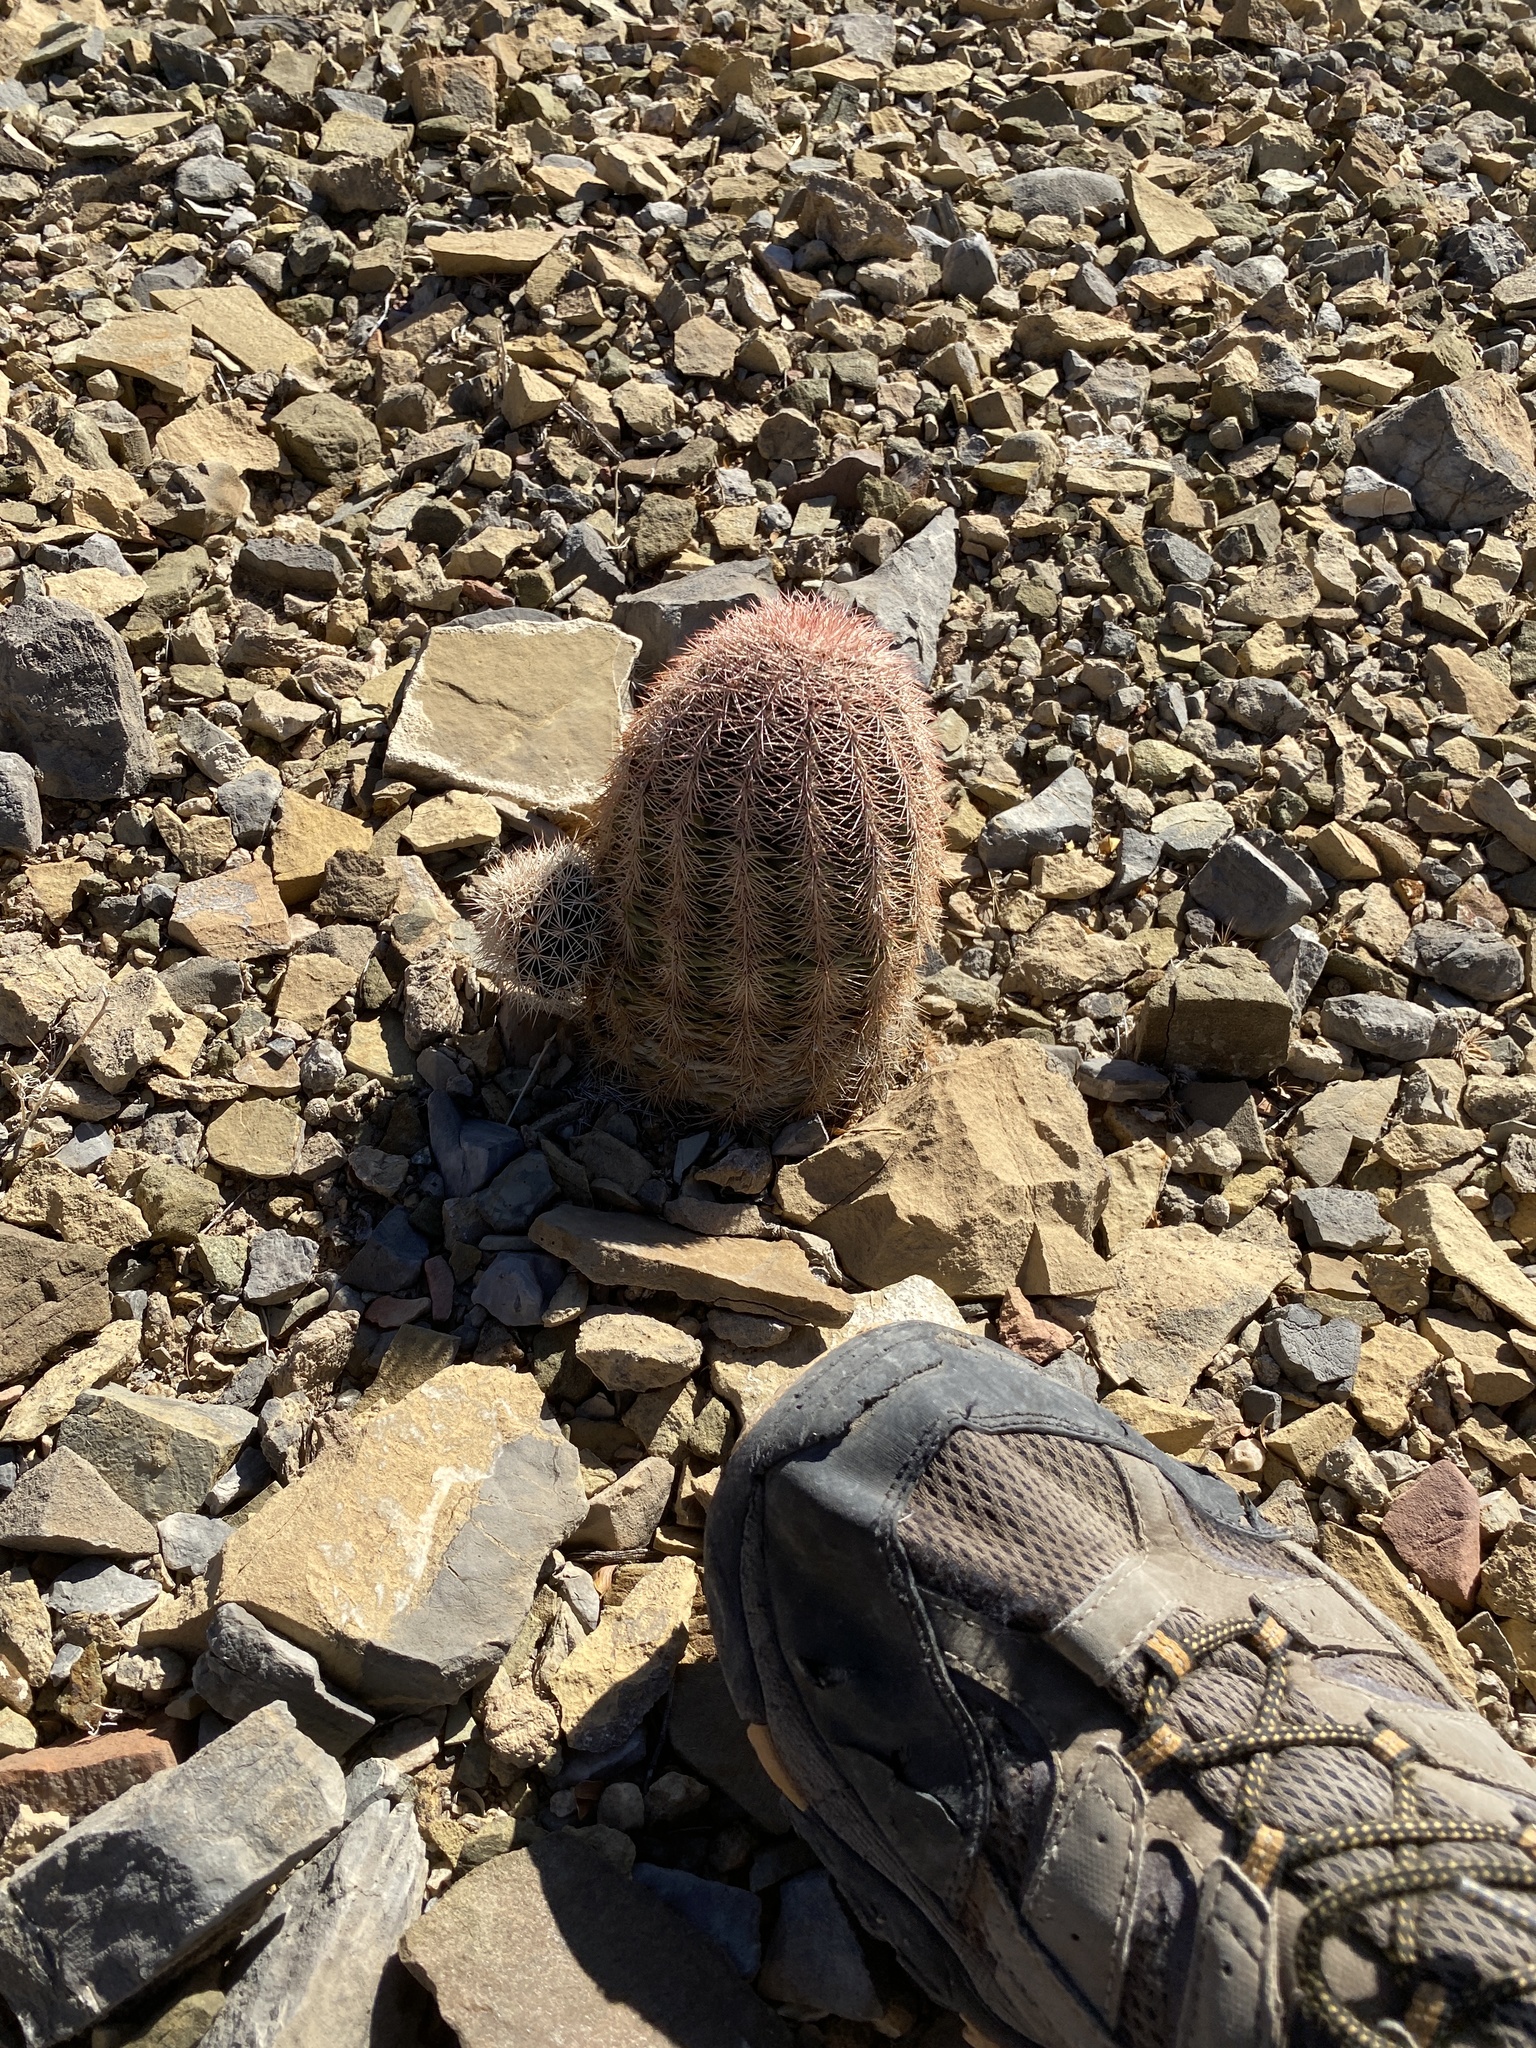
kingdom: Plantae
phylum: Tracheophyta
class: Magnoliopsida
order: Caryophyllales
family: Cactaceae
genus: Echinocereus
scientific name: Echinocereus dasyacanthus
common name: Spiny hedgehog cactus
